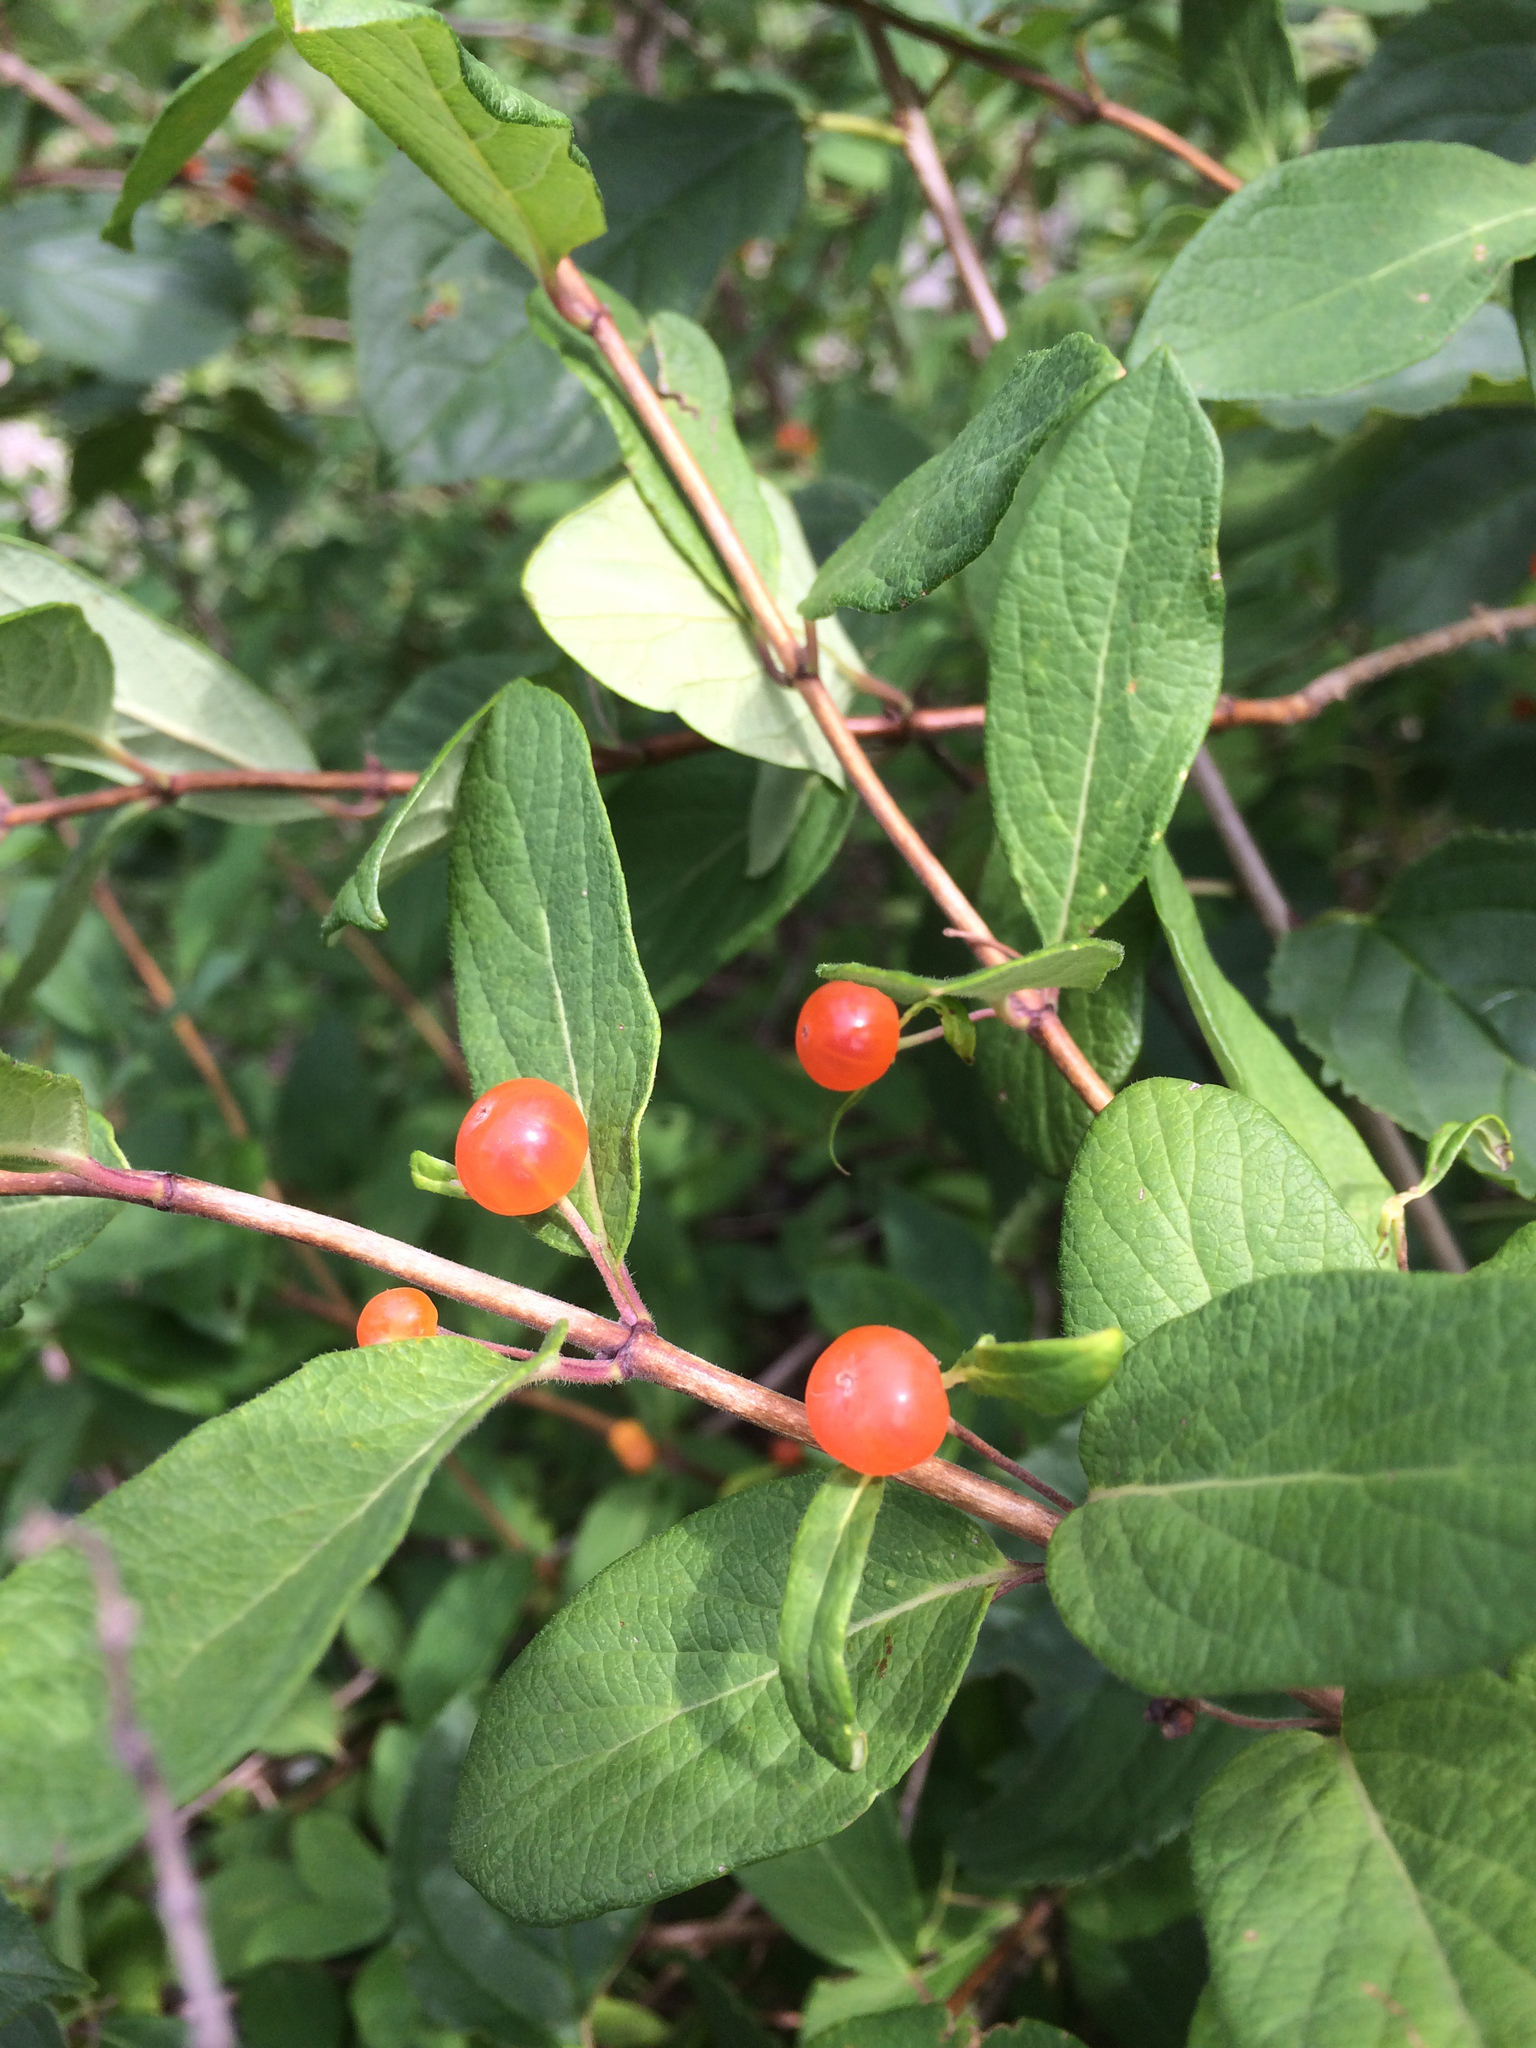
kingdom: Plantae
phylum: Tracheophyta
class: Magnoliopsida
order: Dipsacales
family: Caprifoliaceae
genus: Lonicera
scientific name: Lonicera maackii
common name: Amur honeysuckle
